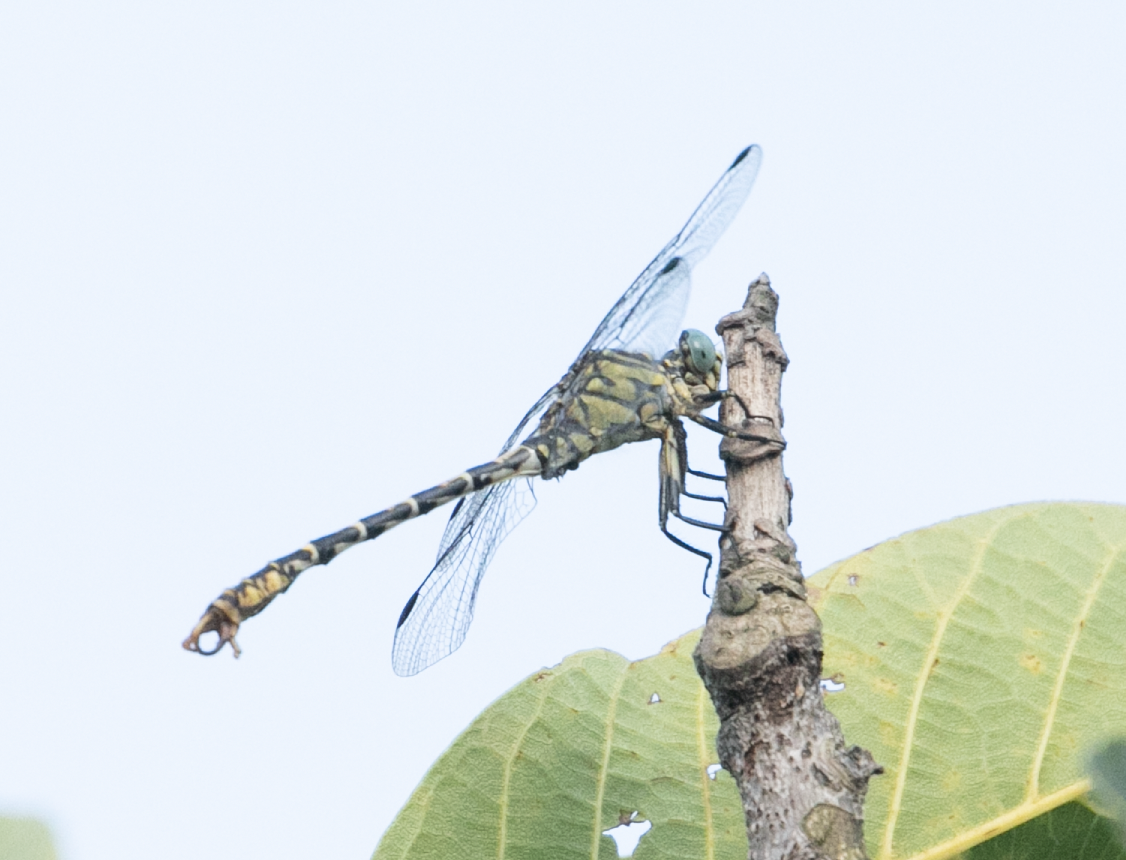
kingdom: Animalia
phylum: Arthropoda
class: Insecta
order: Odonata
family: Gomphidae
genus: Onychogomphus
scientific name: Onychogomphus forcipatus
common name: Small pincertail
